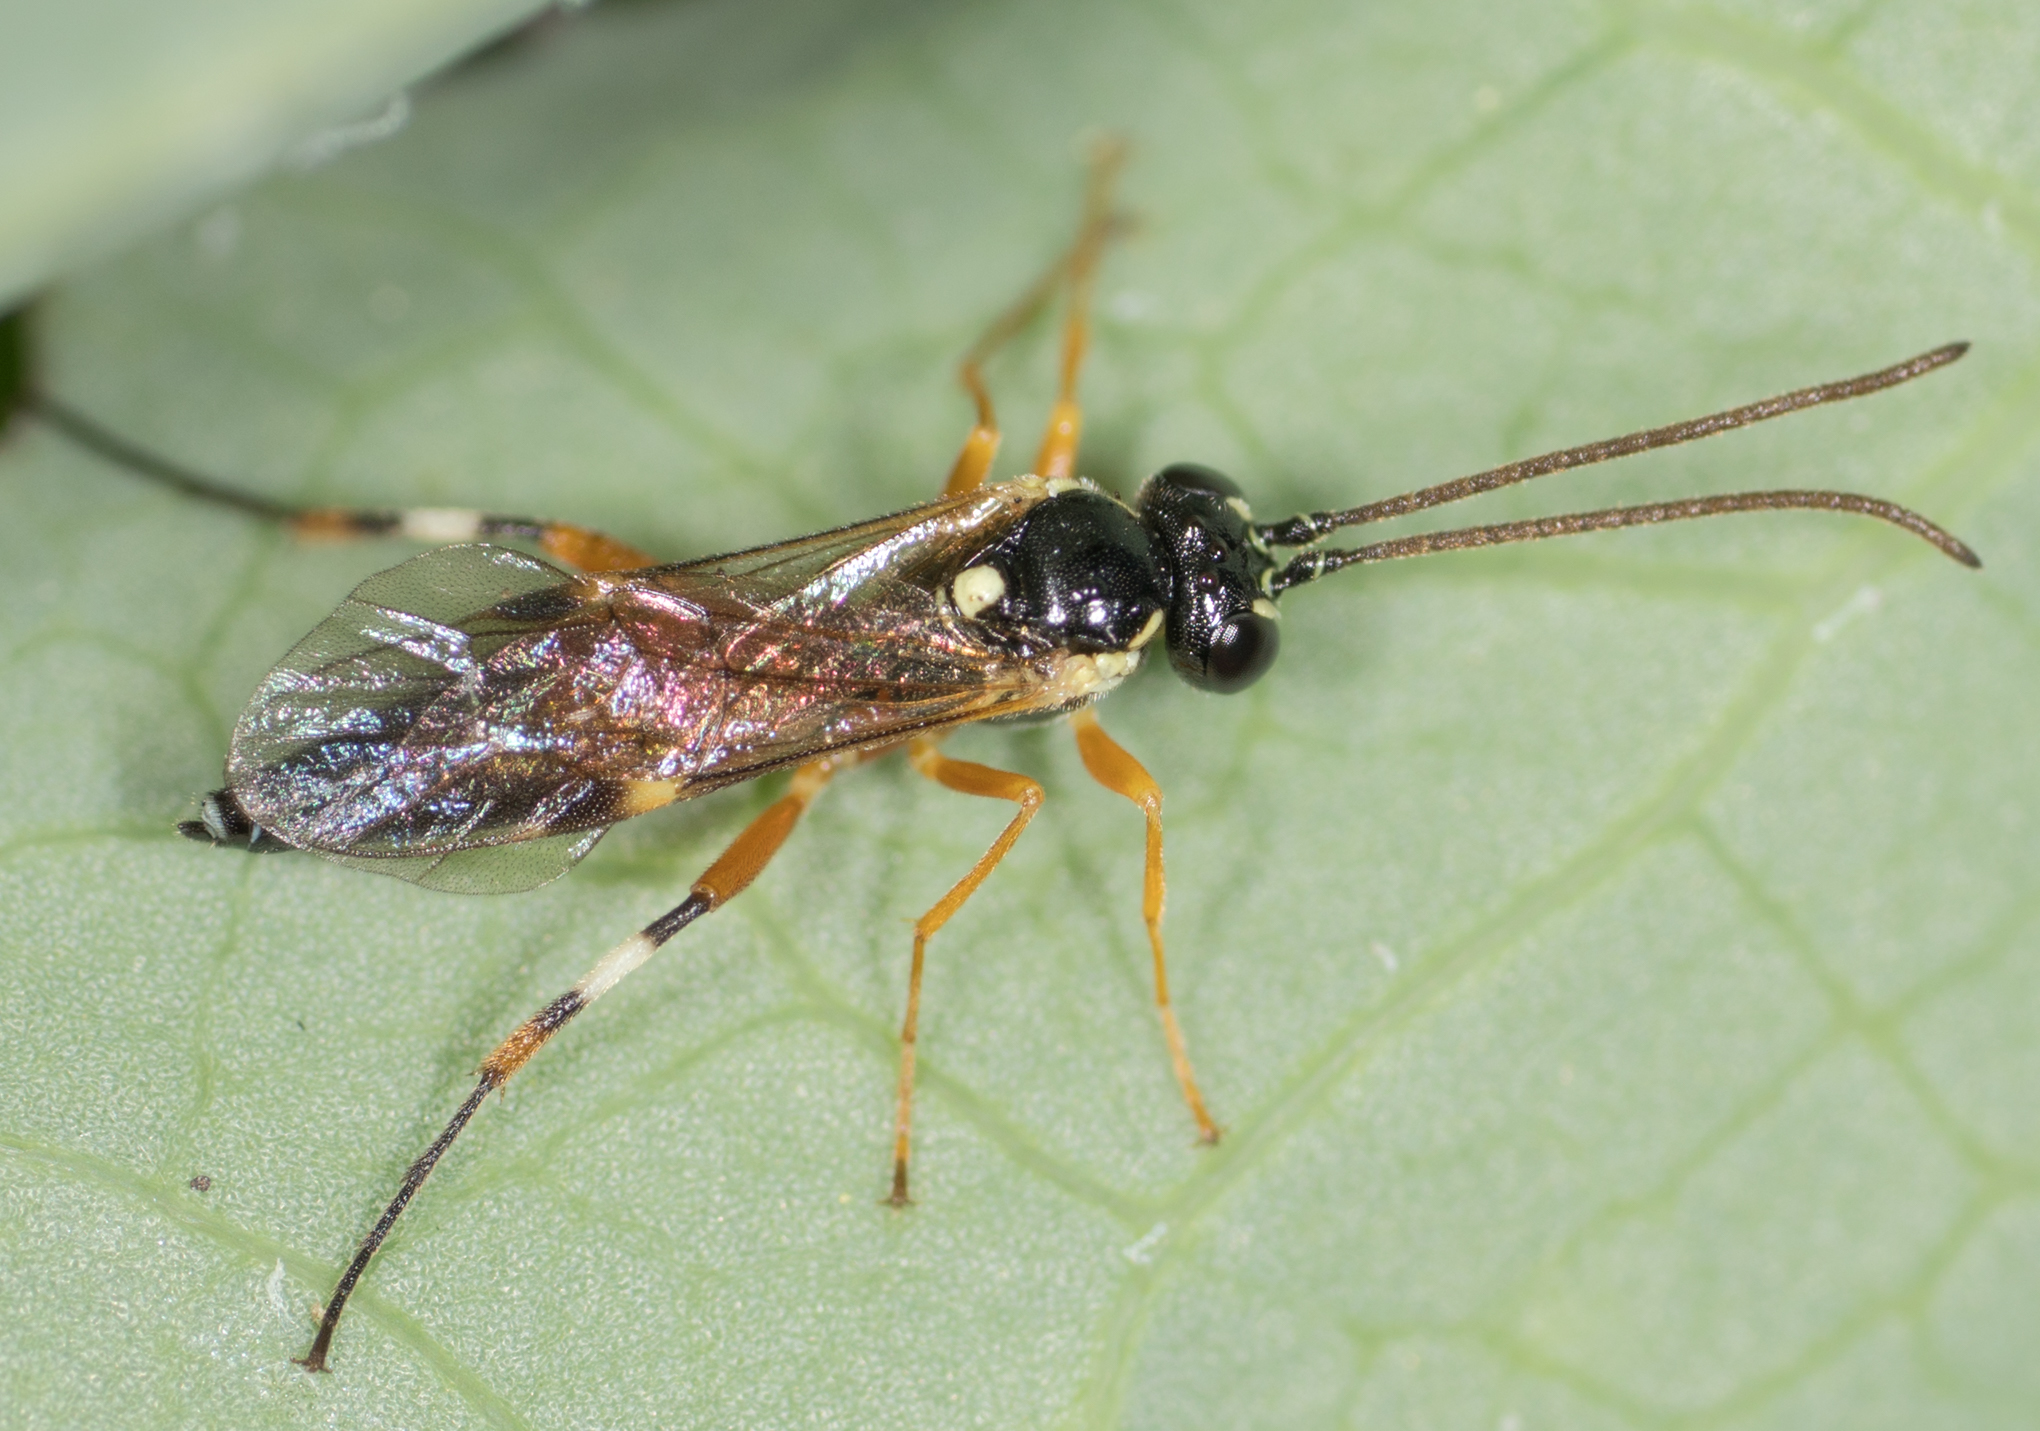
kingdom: Animalia
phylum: Arthropoda
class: Insecta
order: Hymenoptera
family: Ichneumonidae
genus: Diplazon
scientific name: Diplazon laetatorius
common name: Parasitoid wasp
